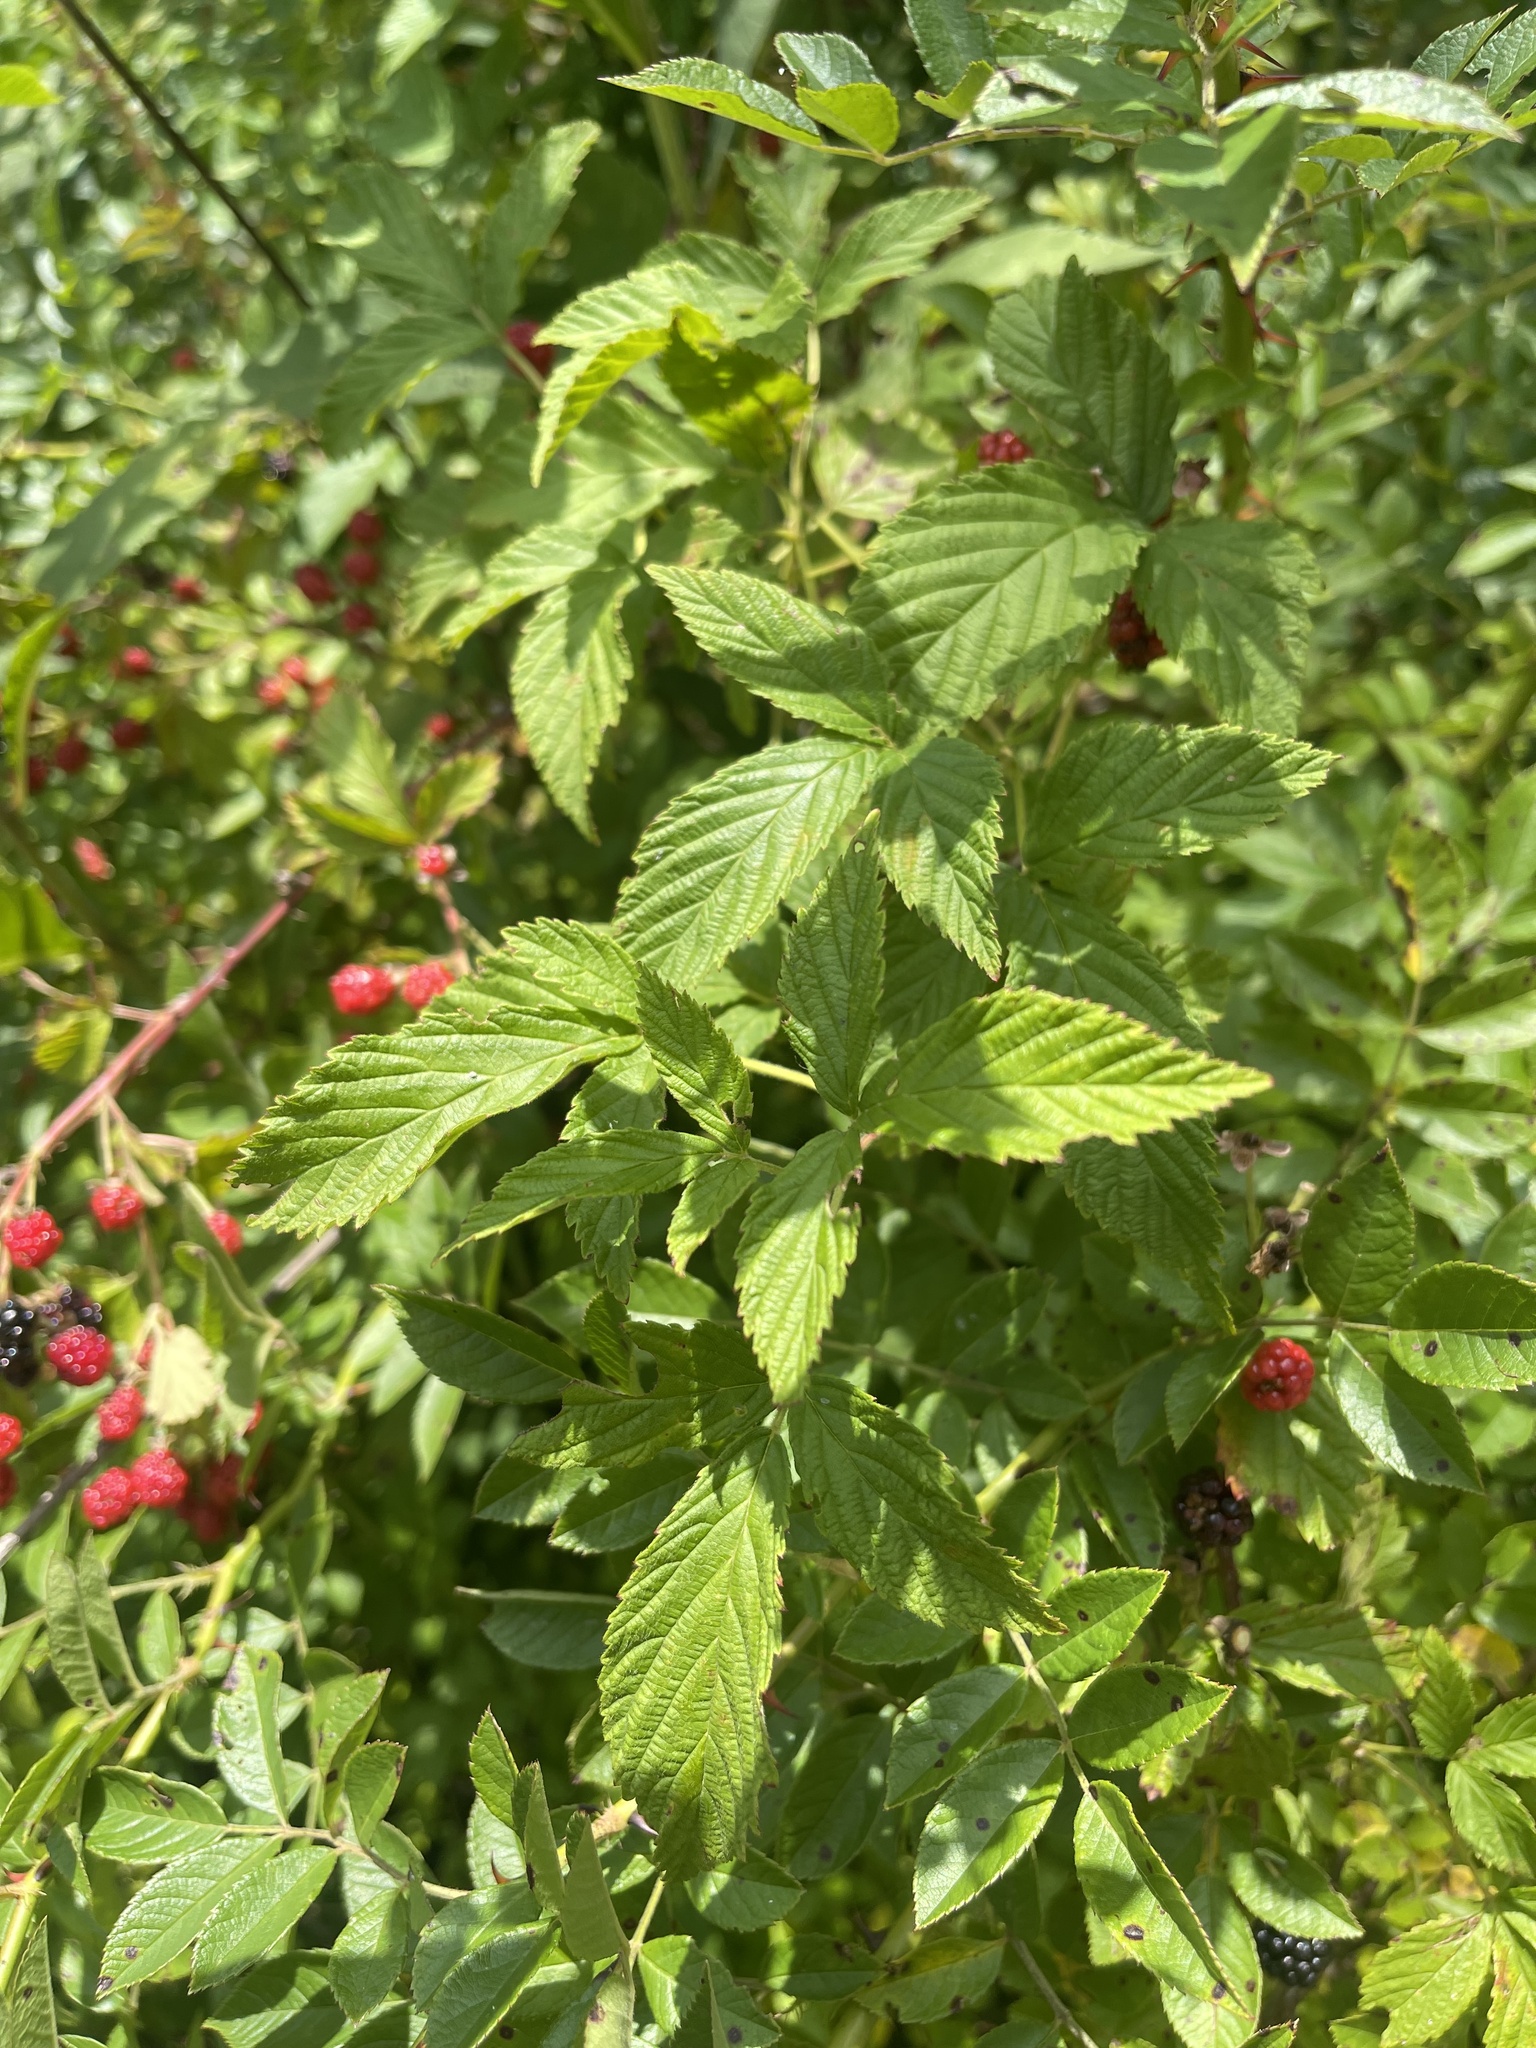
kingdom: Plantae
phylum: Tracheophyta
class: Magnoliopsida
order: Rosales
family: Rosaceae
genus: Rubus
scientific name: Rubus allegheniensis
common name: Allegheny blackberry
